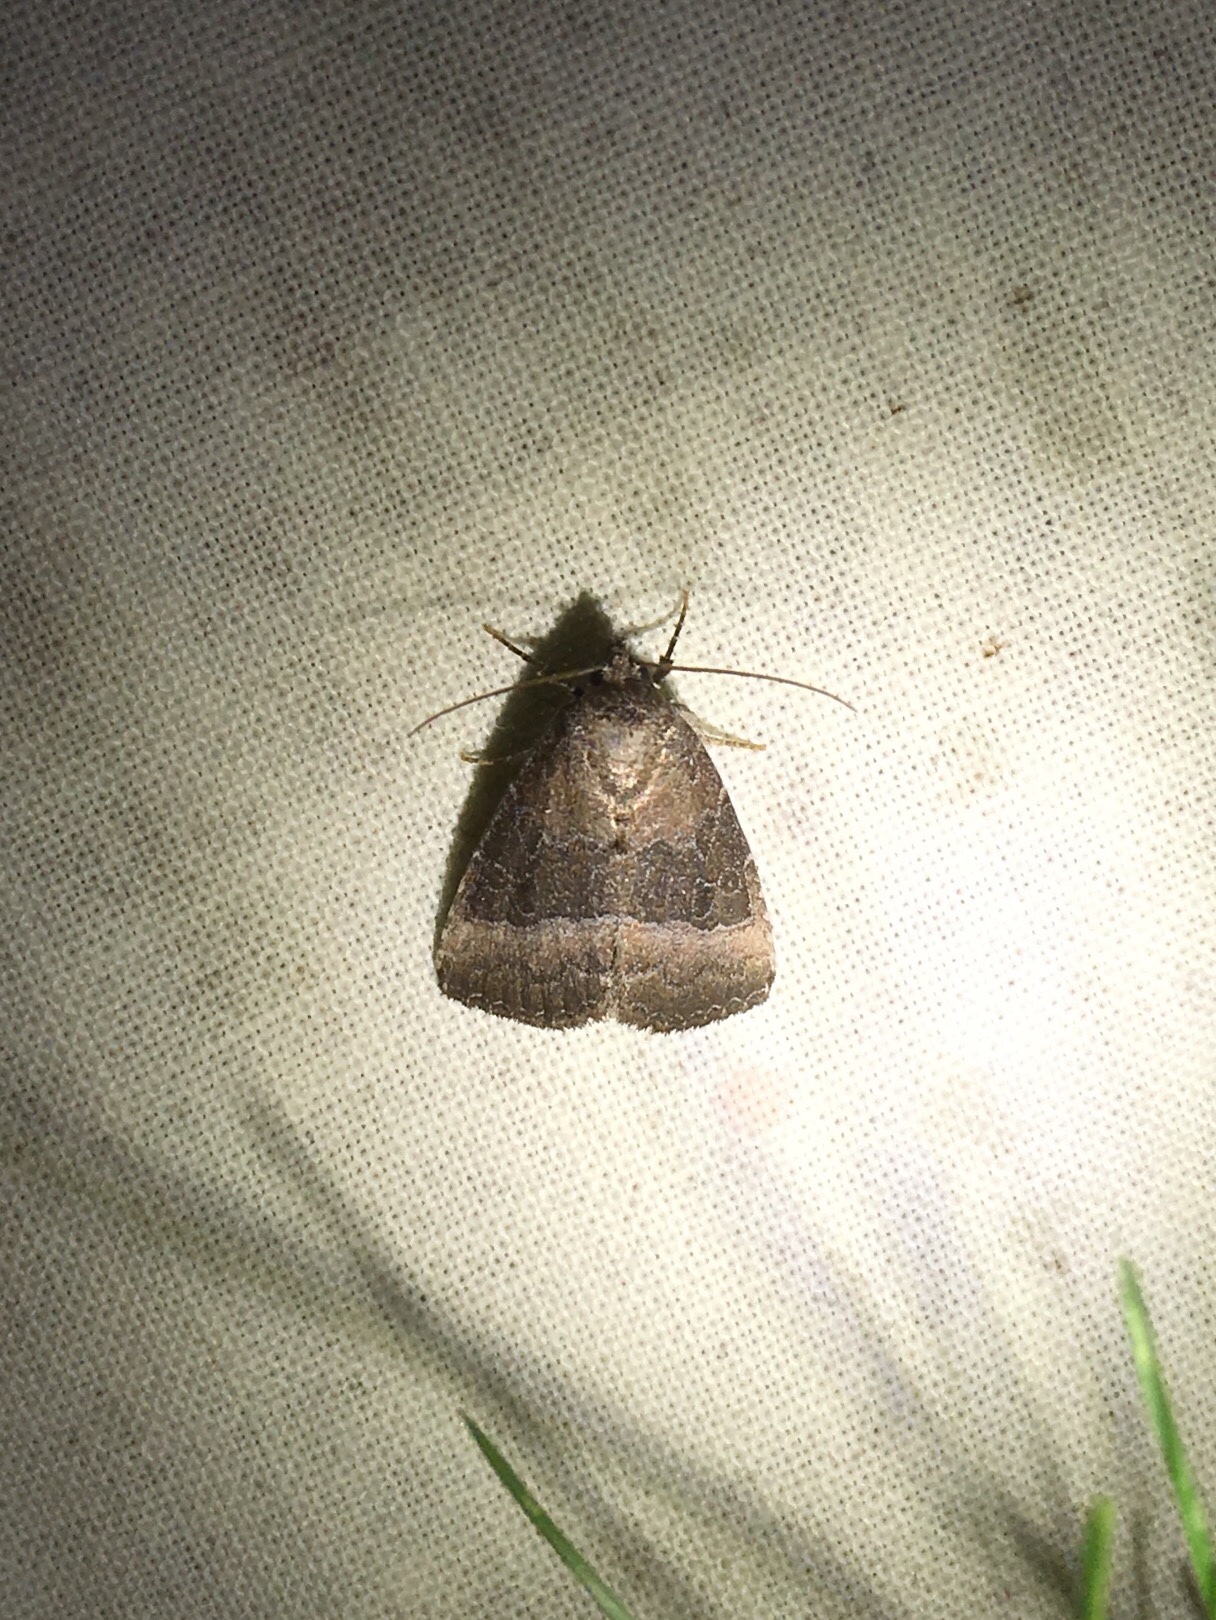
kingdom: Animalia
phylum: Arthropoda
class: Insecta
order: Lepidoptera
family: Noctuidae
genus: Ogdoconta
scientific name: Ogdoconta cinereola
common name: Common pinkband
